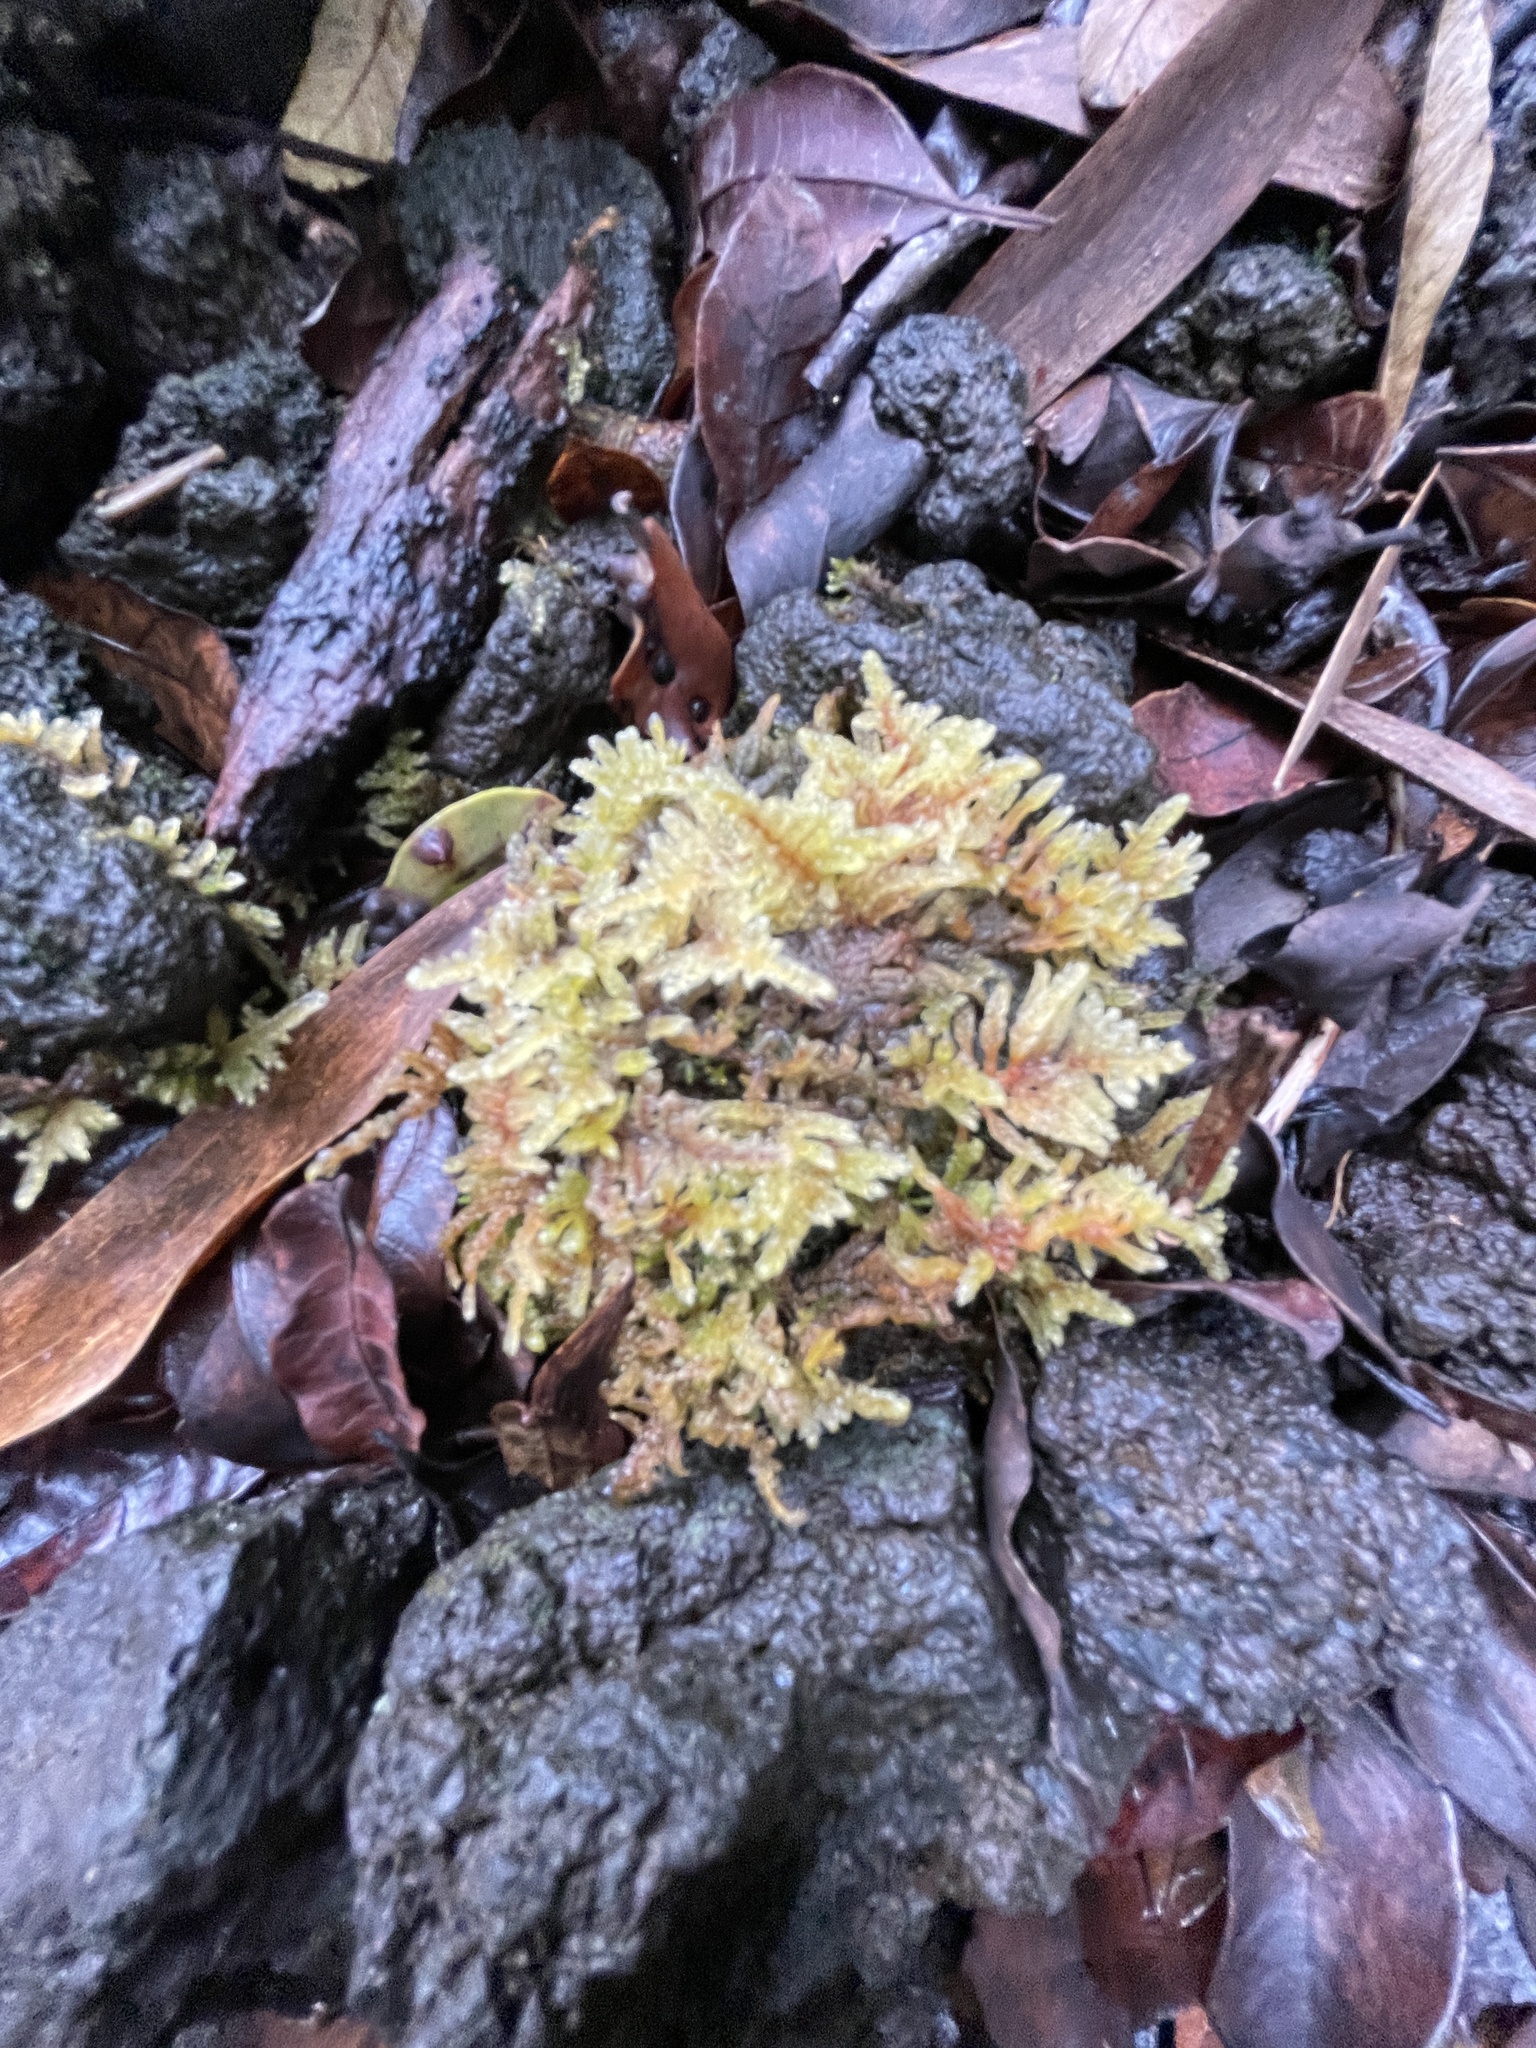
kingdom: Plantae
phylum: Bryophyta
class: Bryopsida
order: Hypnales
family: Hypnaceae
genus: Hypnum
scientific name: Hypnum plumaeforme
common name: Cypress-leaved plaitmoss
